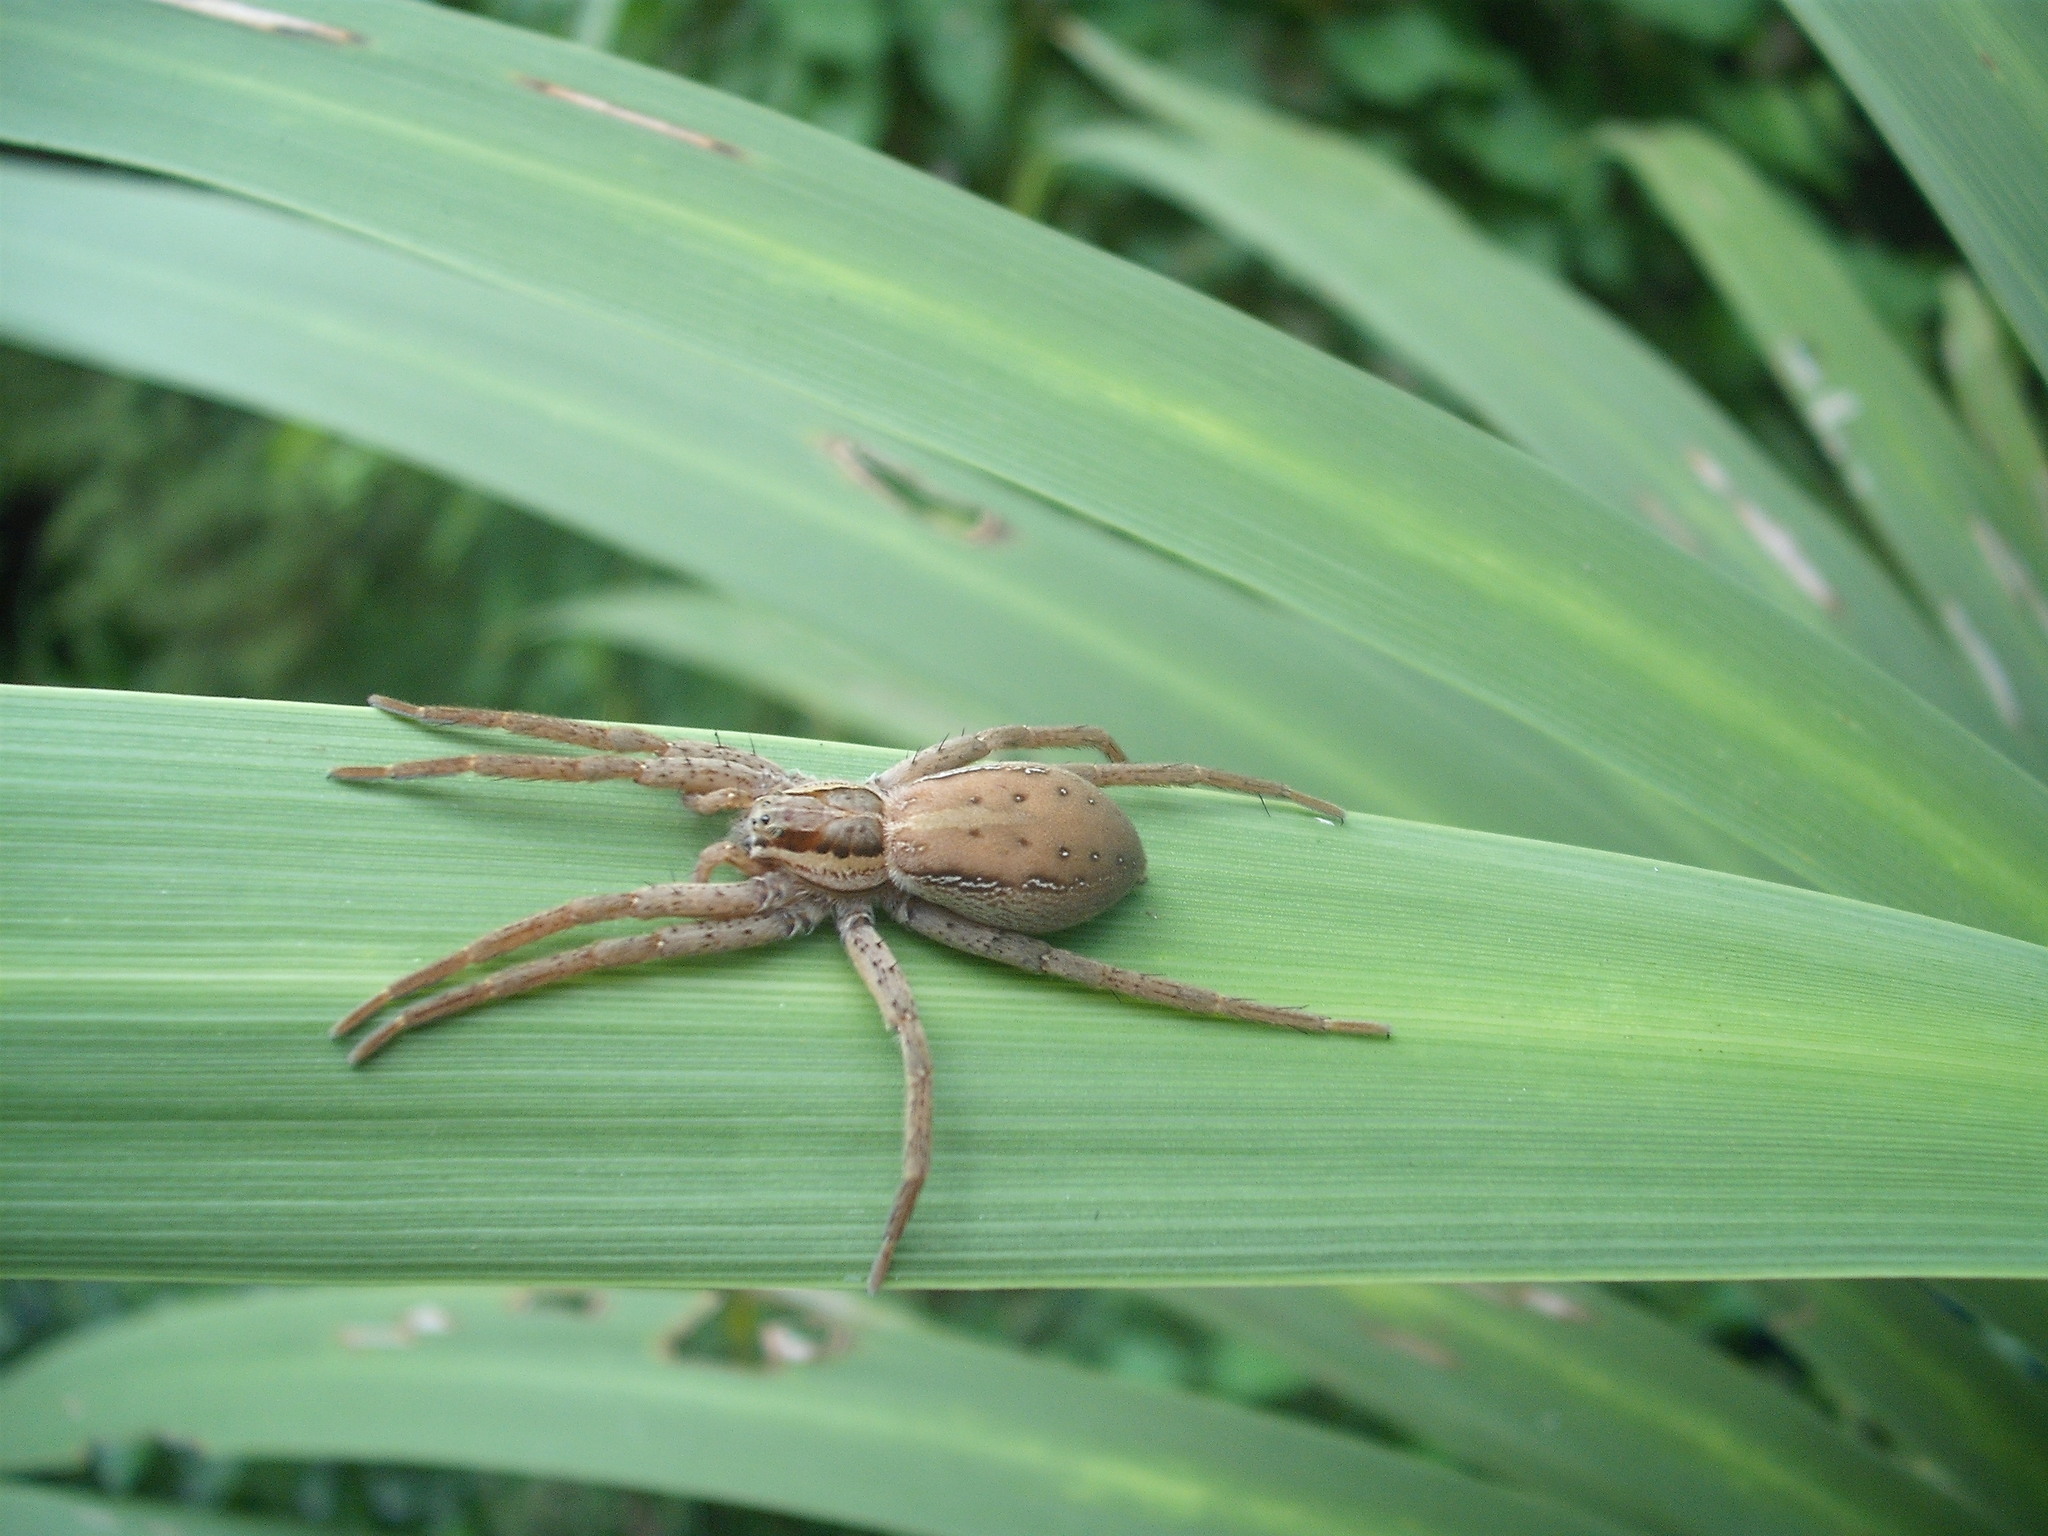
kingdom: Animalia
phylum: Arthropoda
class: Arachnida
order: Araneae
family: Pisauridae
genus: Dolomedes
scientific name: Dolomedes minor
